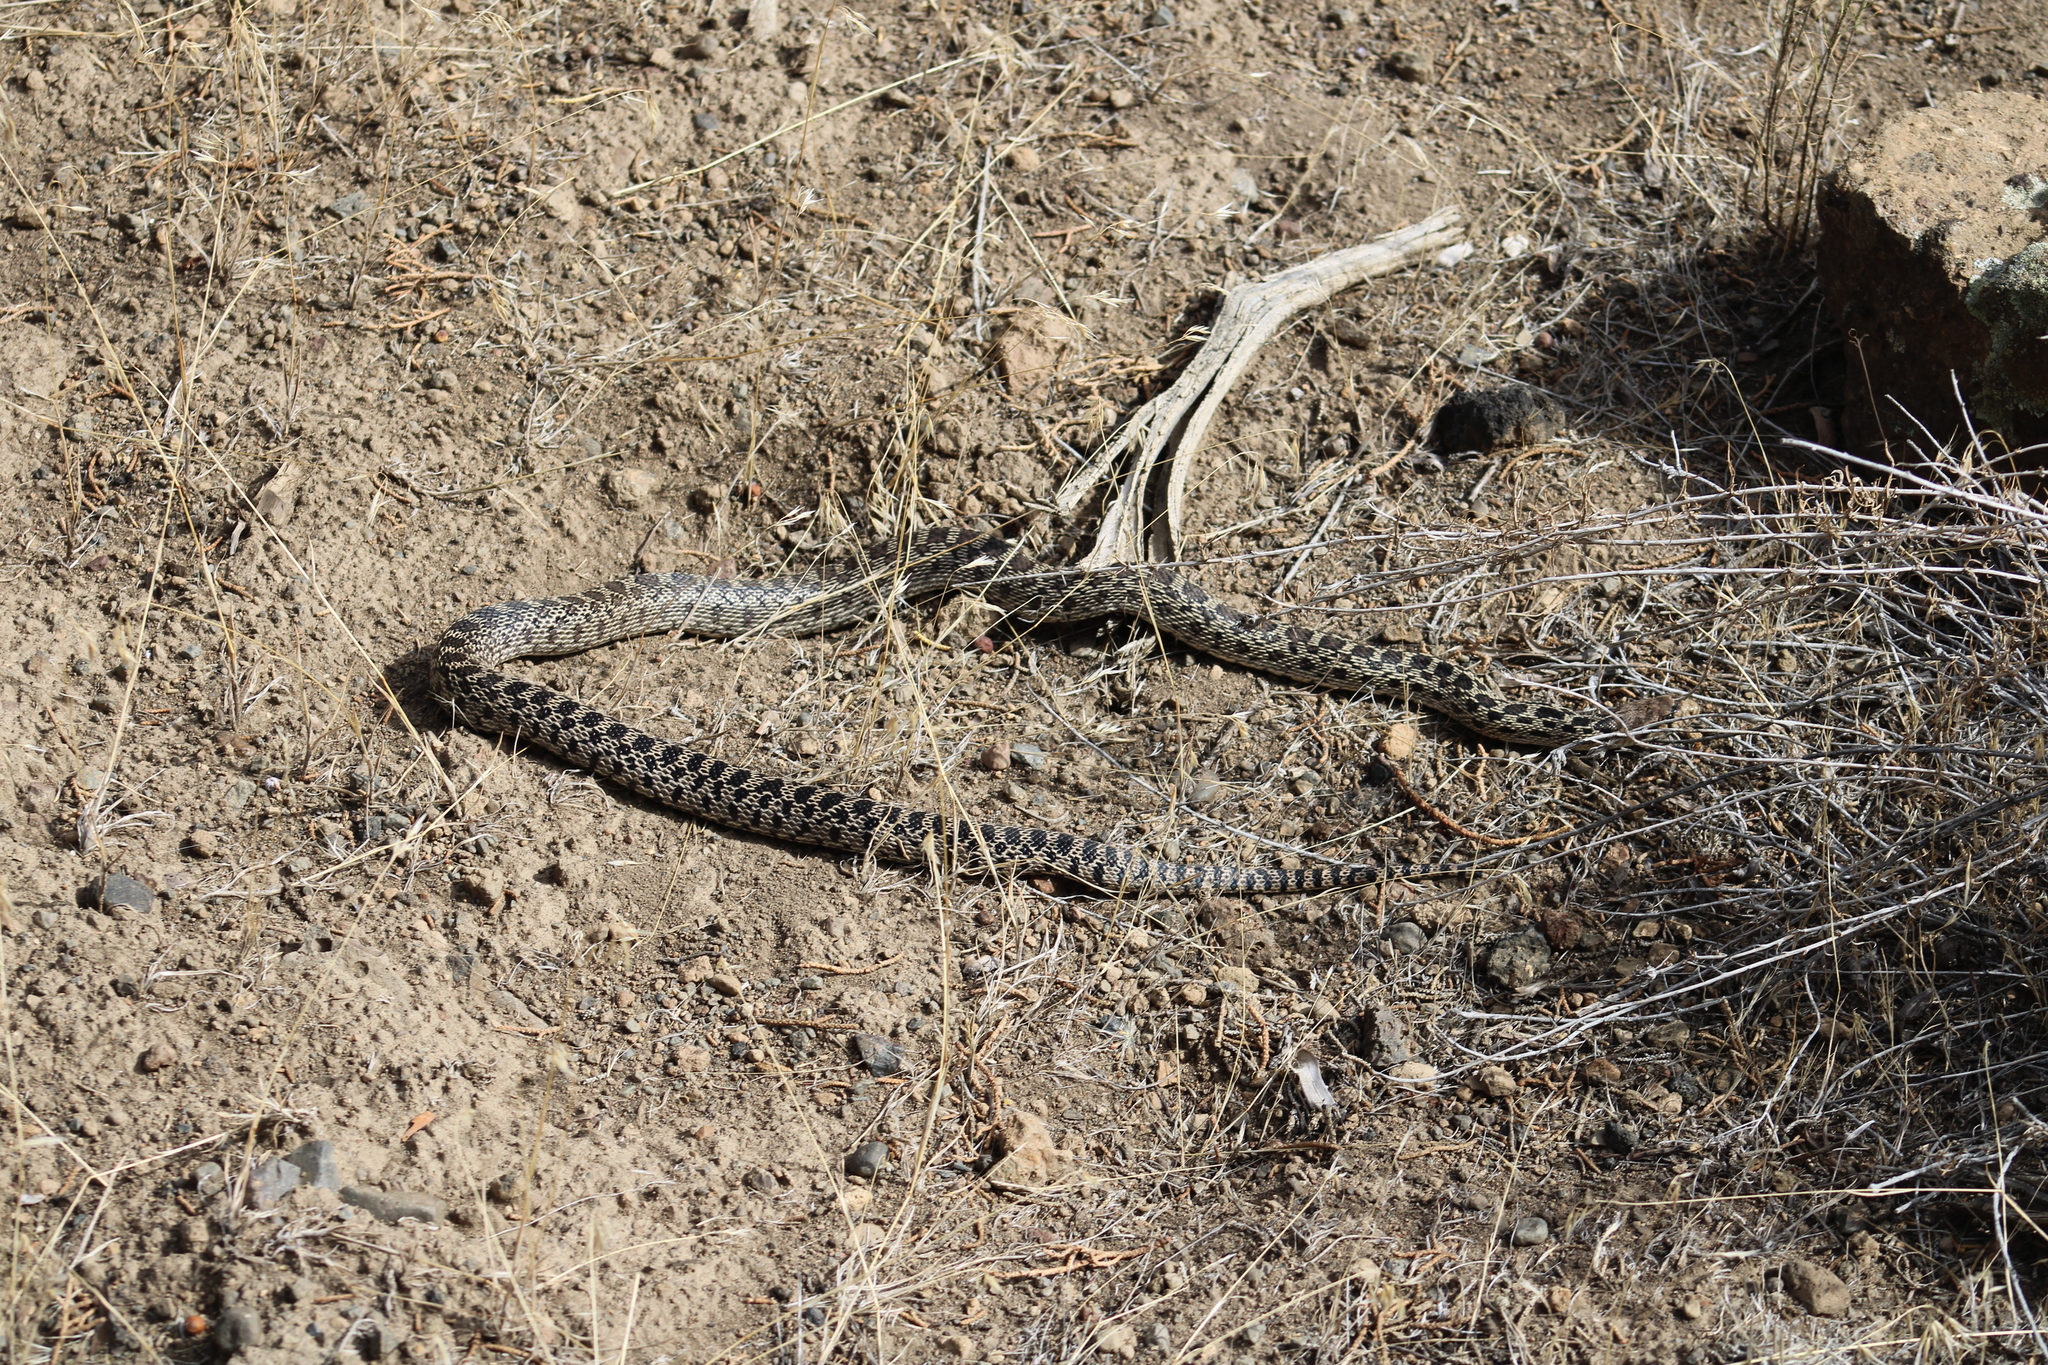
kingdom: Animalia
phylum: Chordata
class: Squamata
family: Colubridae
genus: Pituophis
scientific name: Pituophis catenifer
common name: Gopher snake
